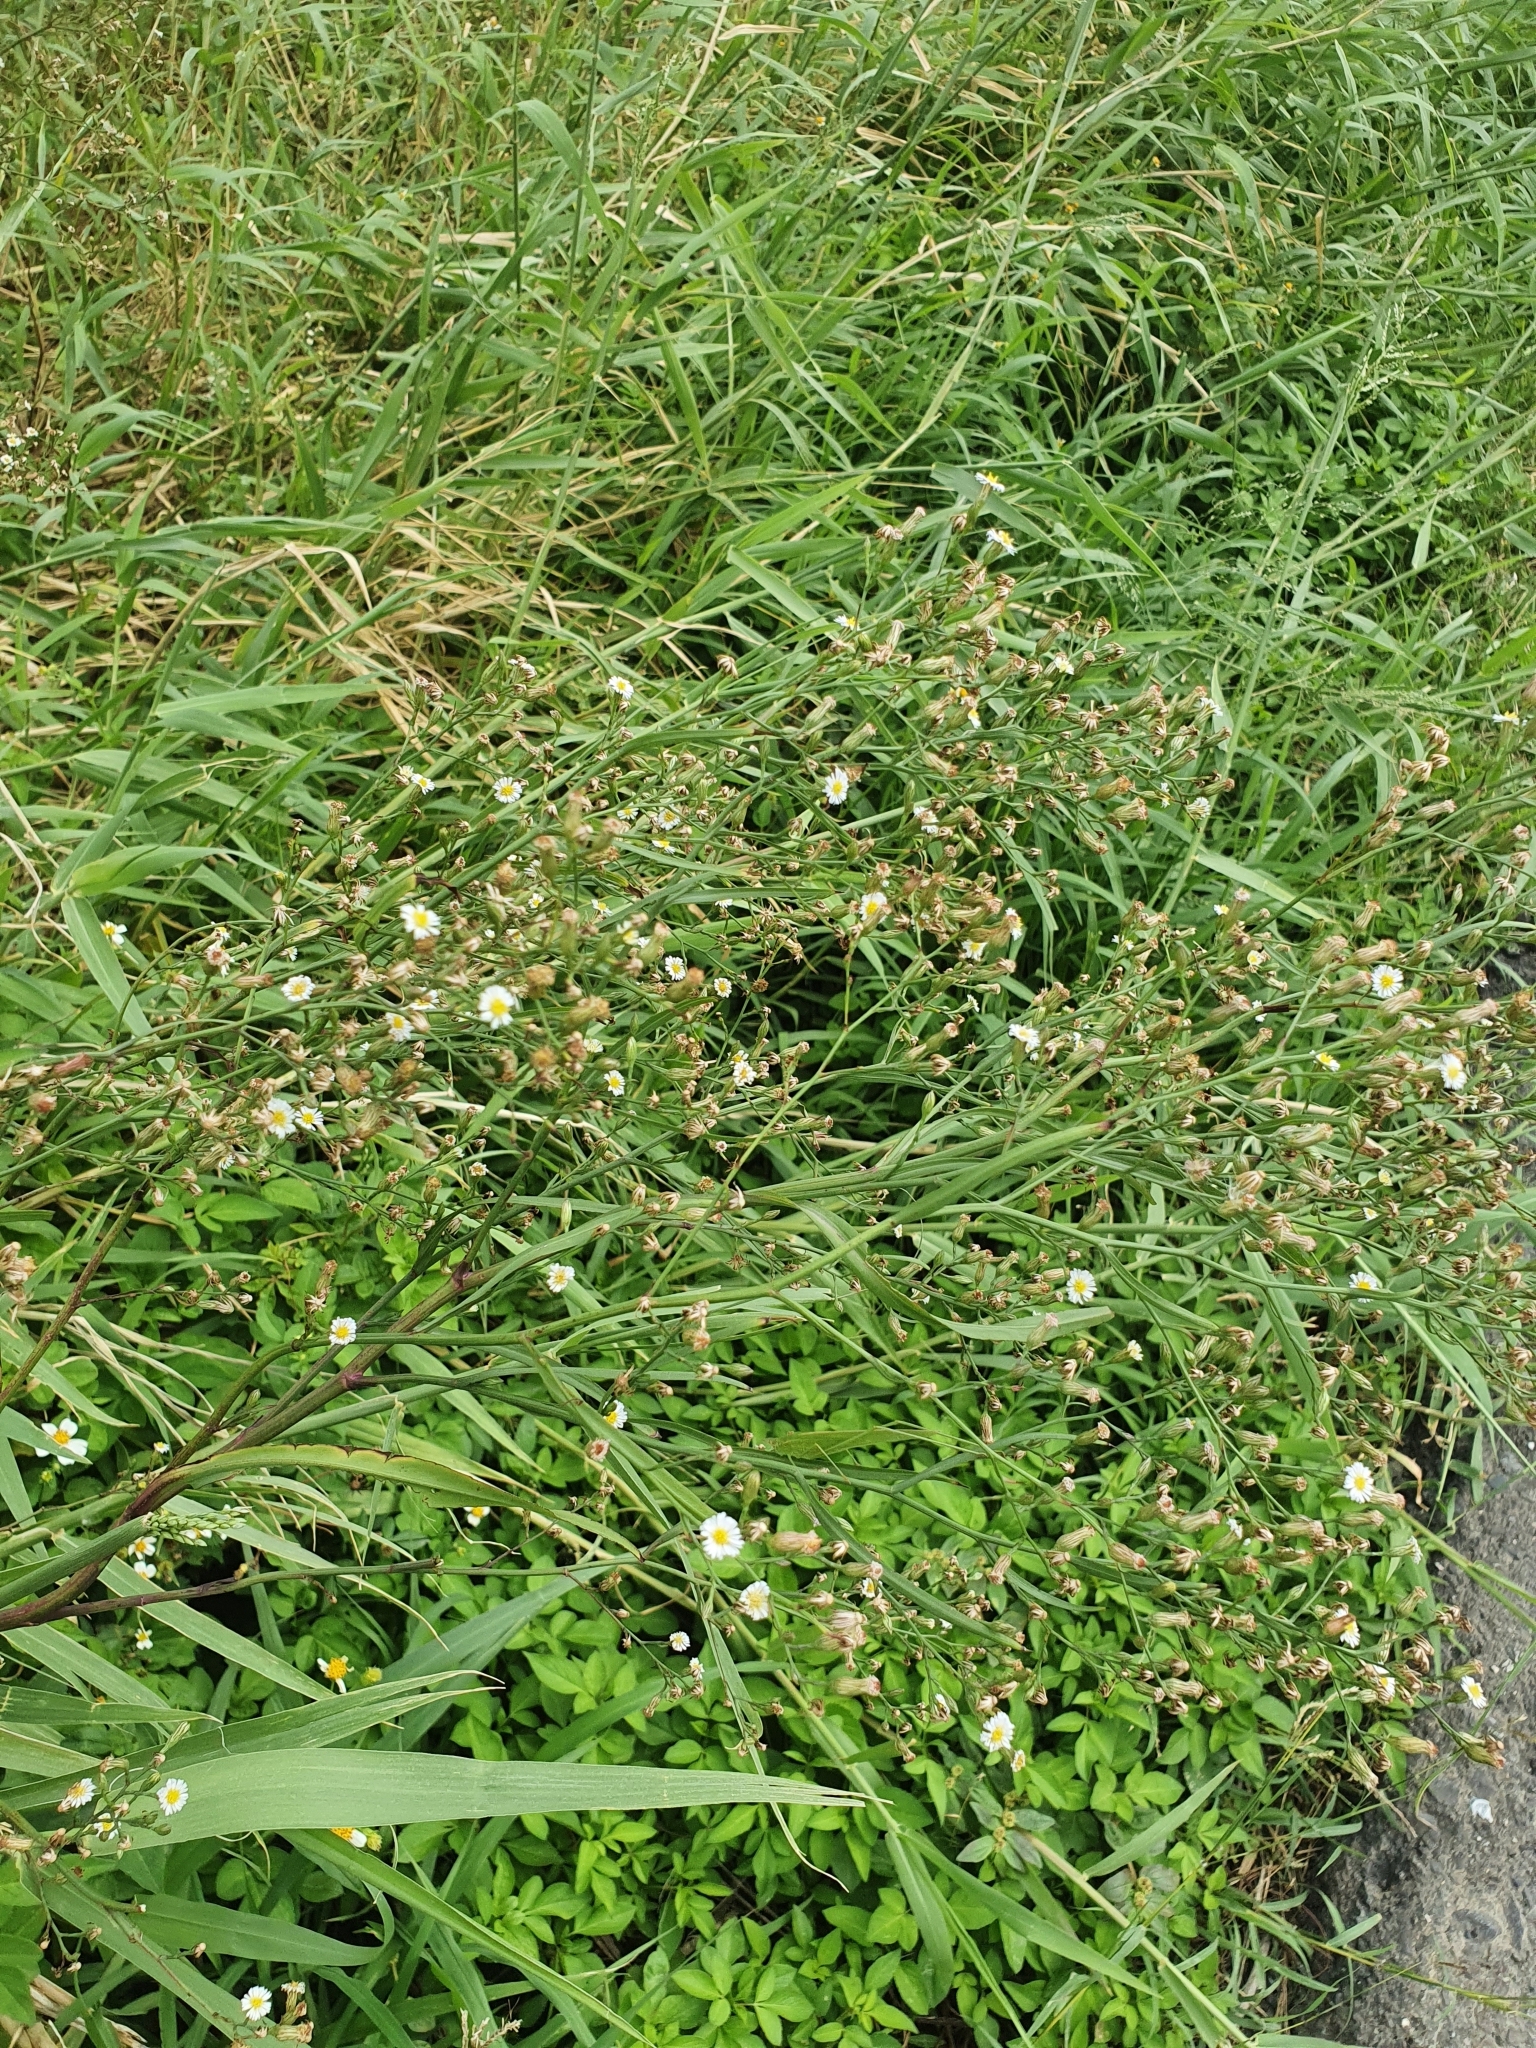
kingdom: Plantae
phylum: Tracheophyta
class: Magnoliopsida
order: Asterales
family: Asteraceae
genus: Symphyotrichum
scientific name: Symphyotrichum subulatum
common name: Annual saltmarsh aster
